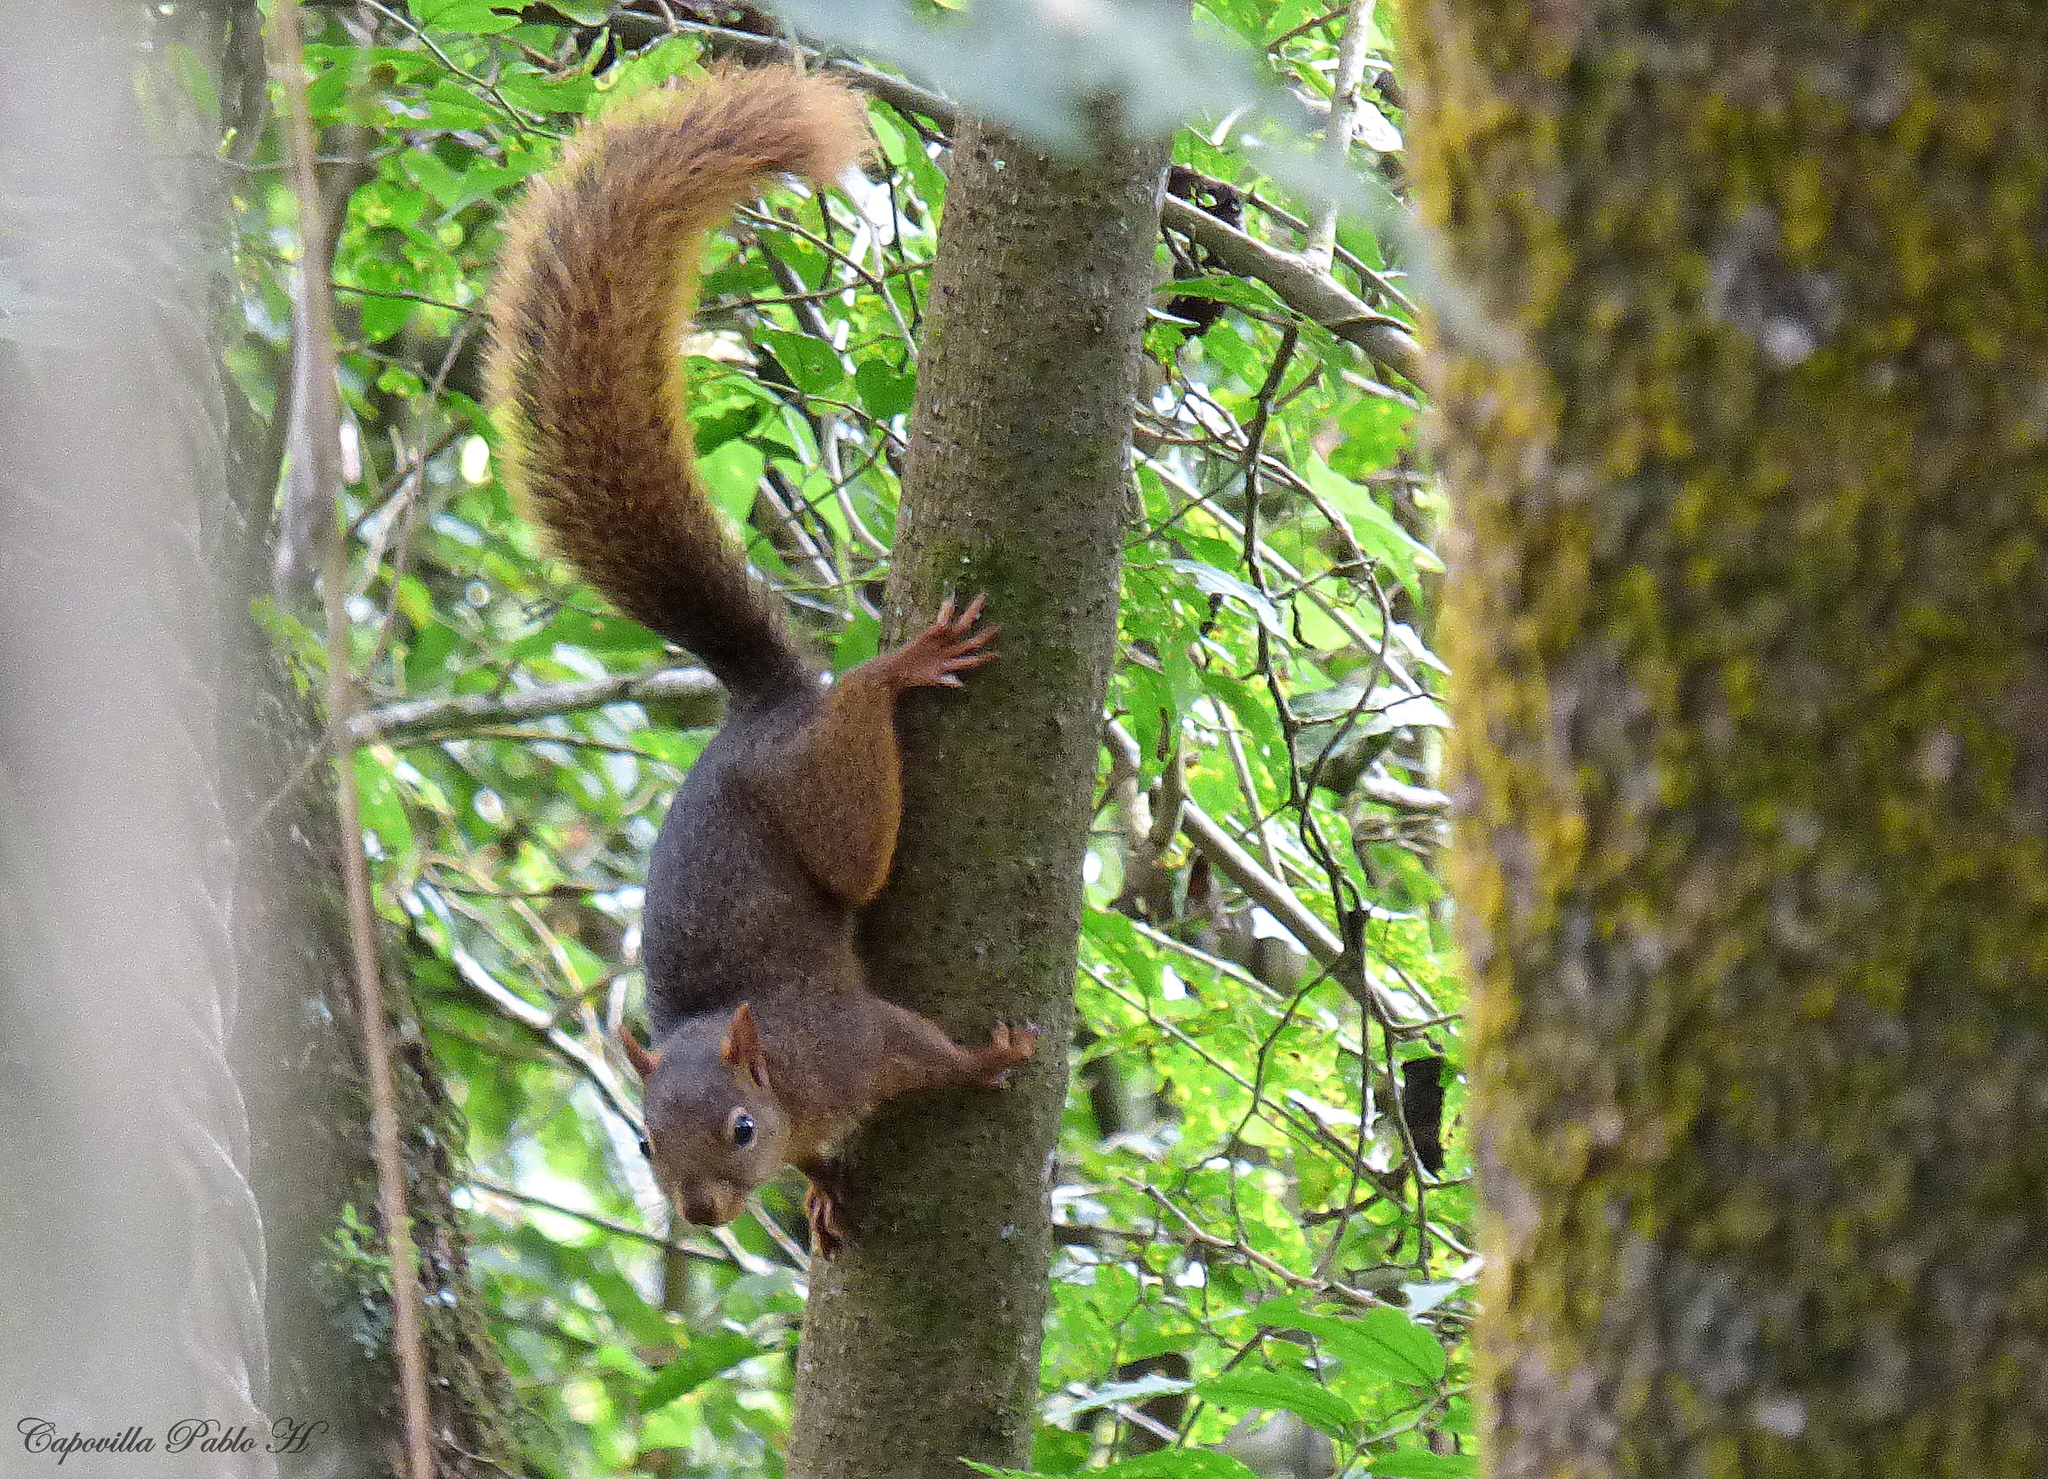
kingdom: Animalia
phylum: Chordata
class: Mammalia
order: Rodentia
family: Sciuridae
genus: Sciurus
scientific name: Sciurus ignitus
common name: Bolivian squirrel
